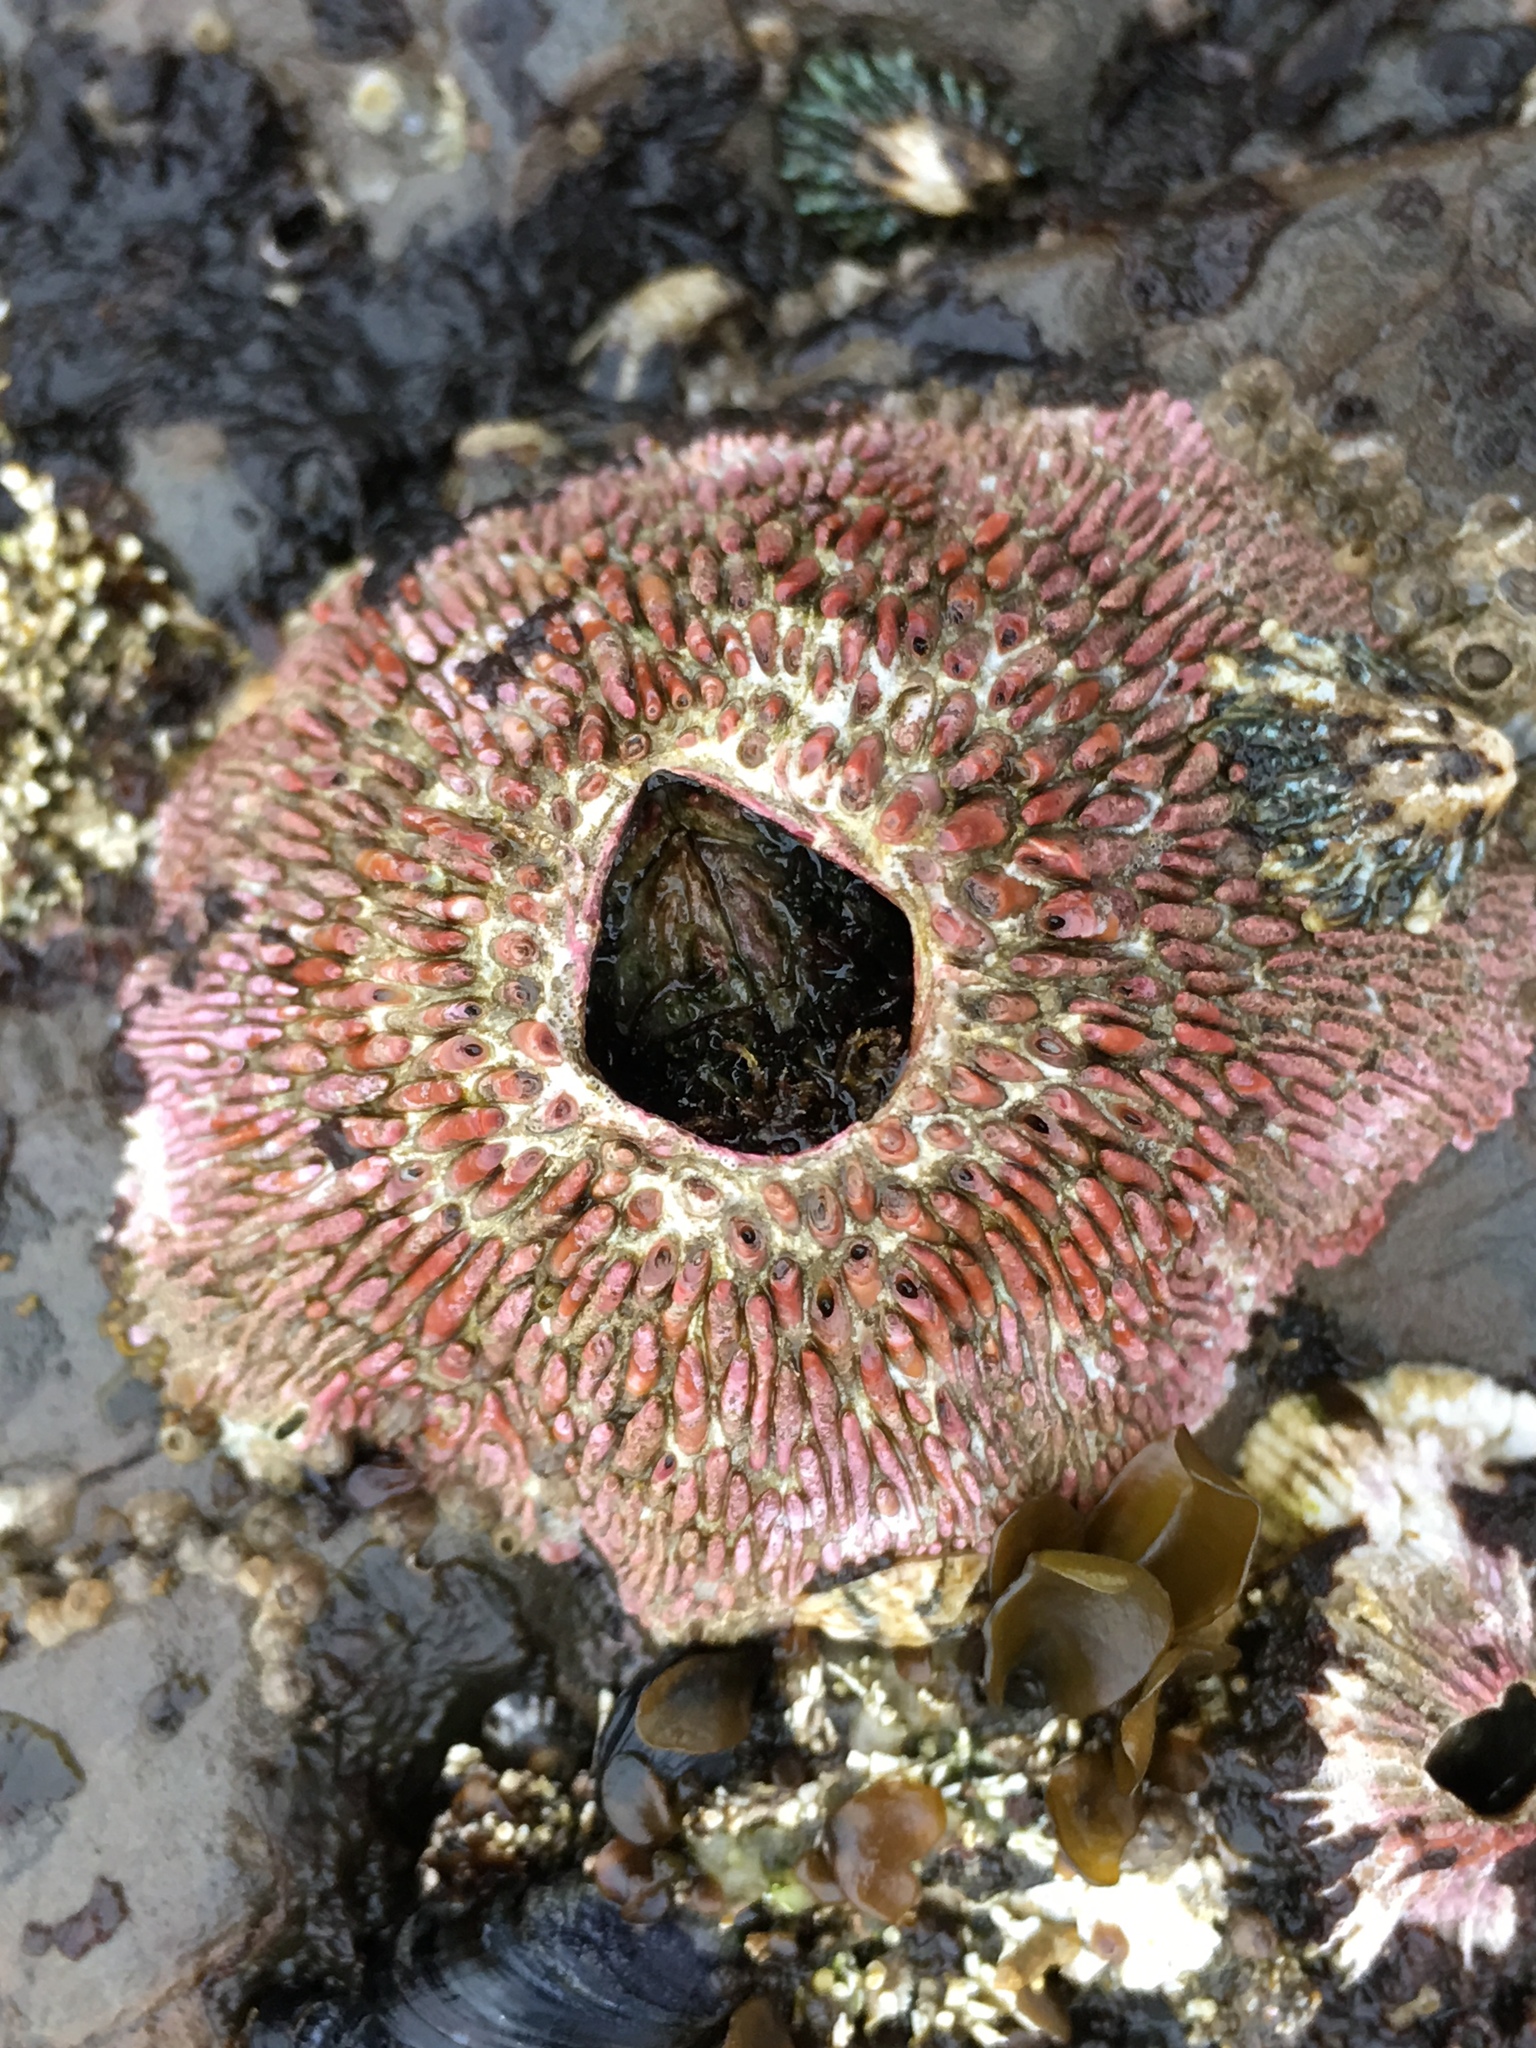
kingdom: Animalia
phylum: Arthropoda
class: Maxillopoda
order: Sessilia
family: Tetraclitidae
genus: Tetraclita
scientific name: Tetraclita rubescens
